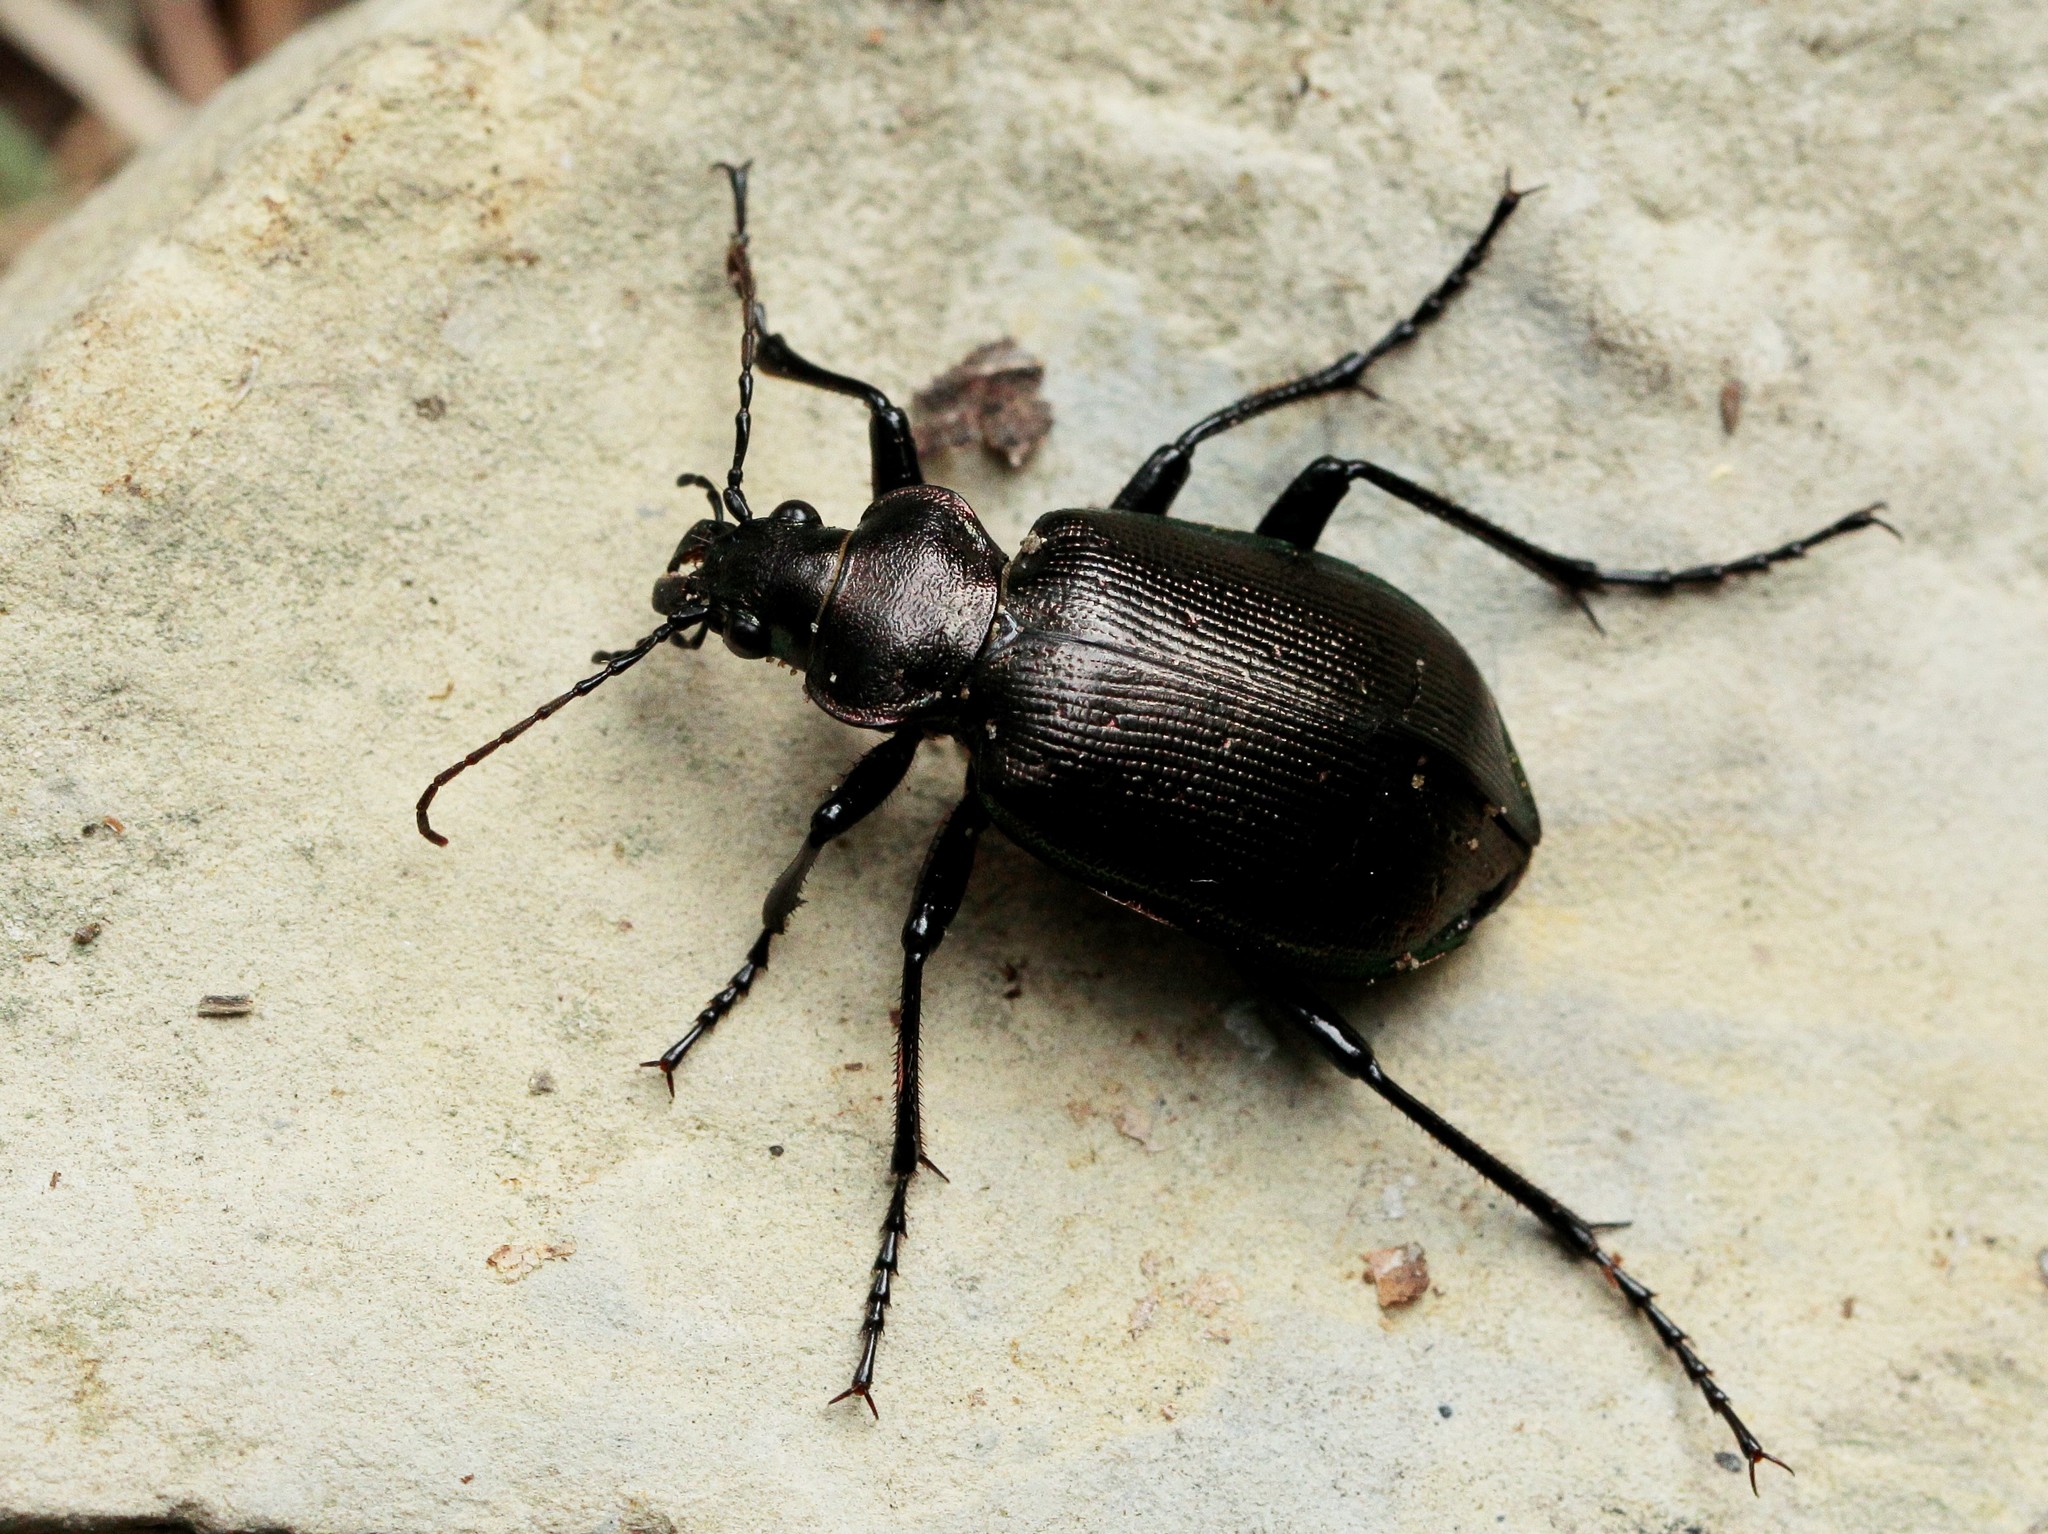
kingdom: Animalia
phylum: Arthropoda
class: Insecta
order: Coleoptera
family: Carabidae
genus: Calosoma
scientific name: Calosoma inquisitor
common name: Caterpillar-hunter
